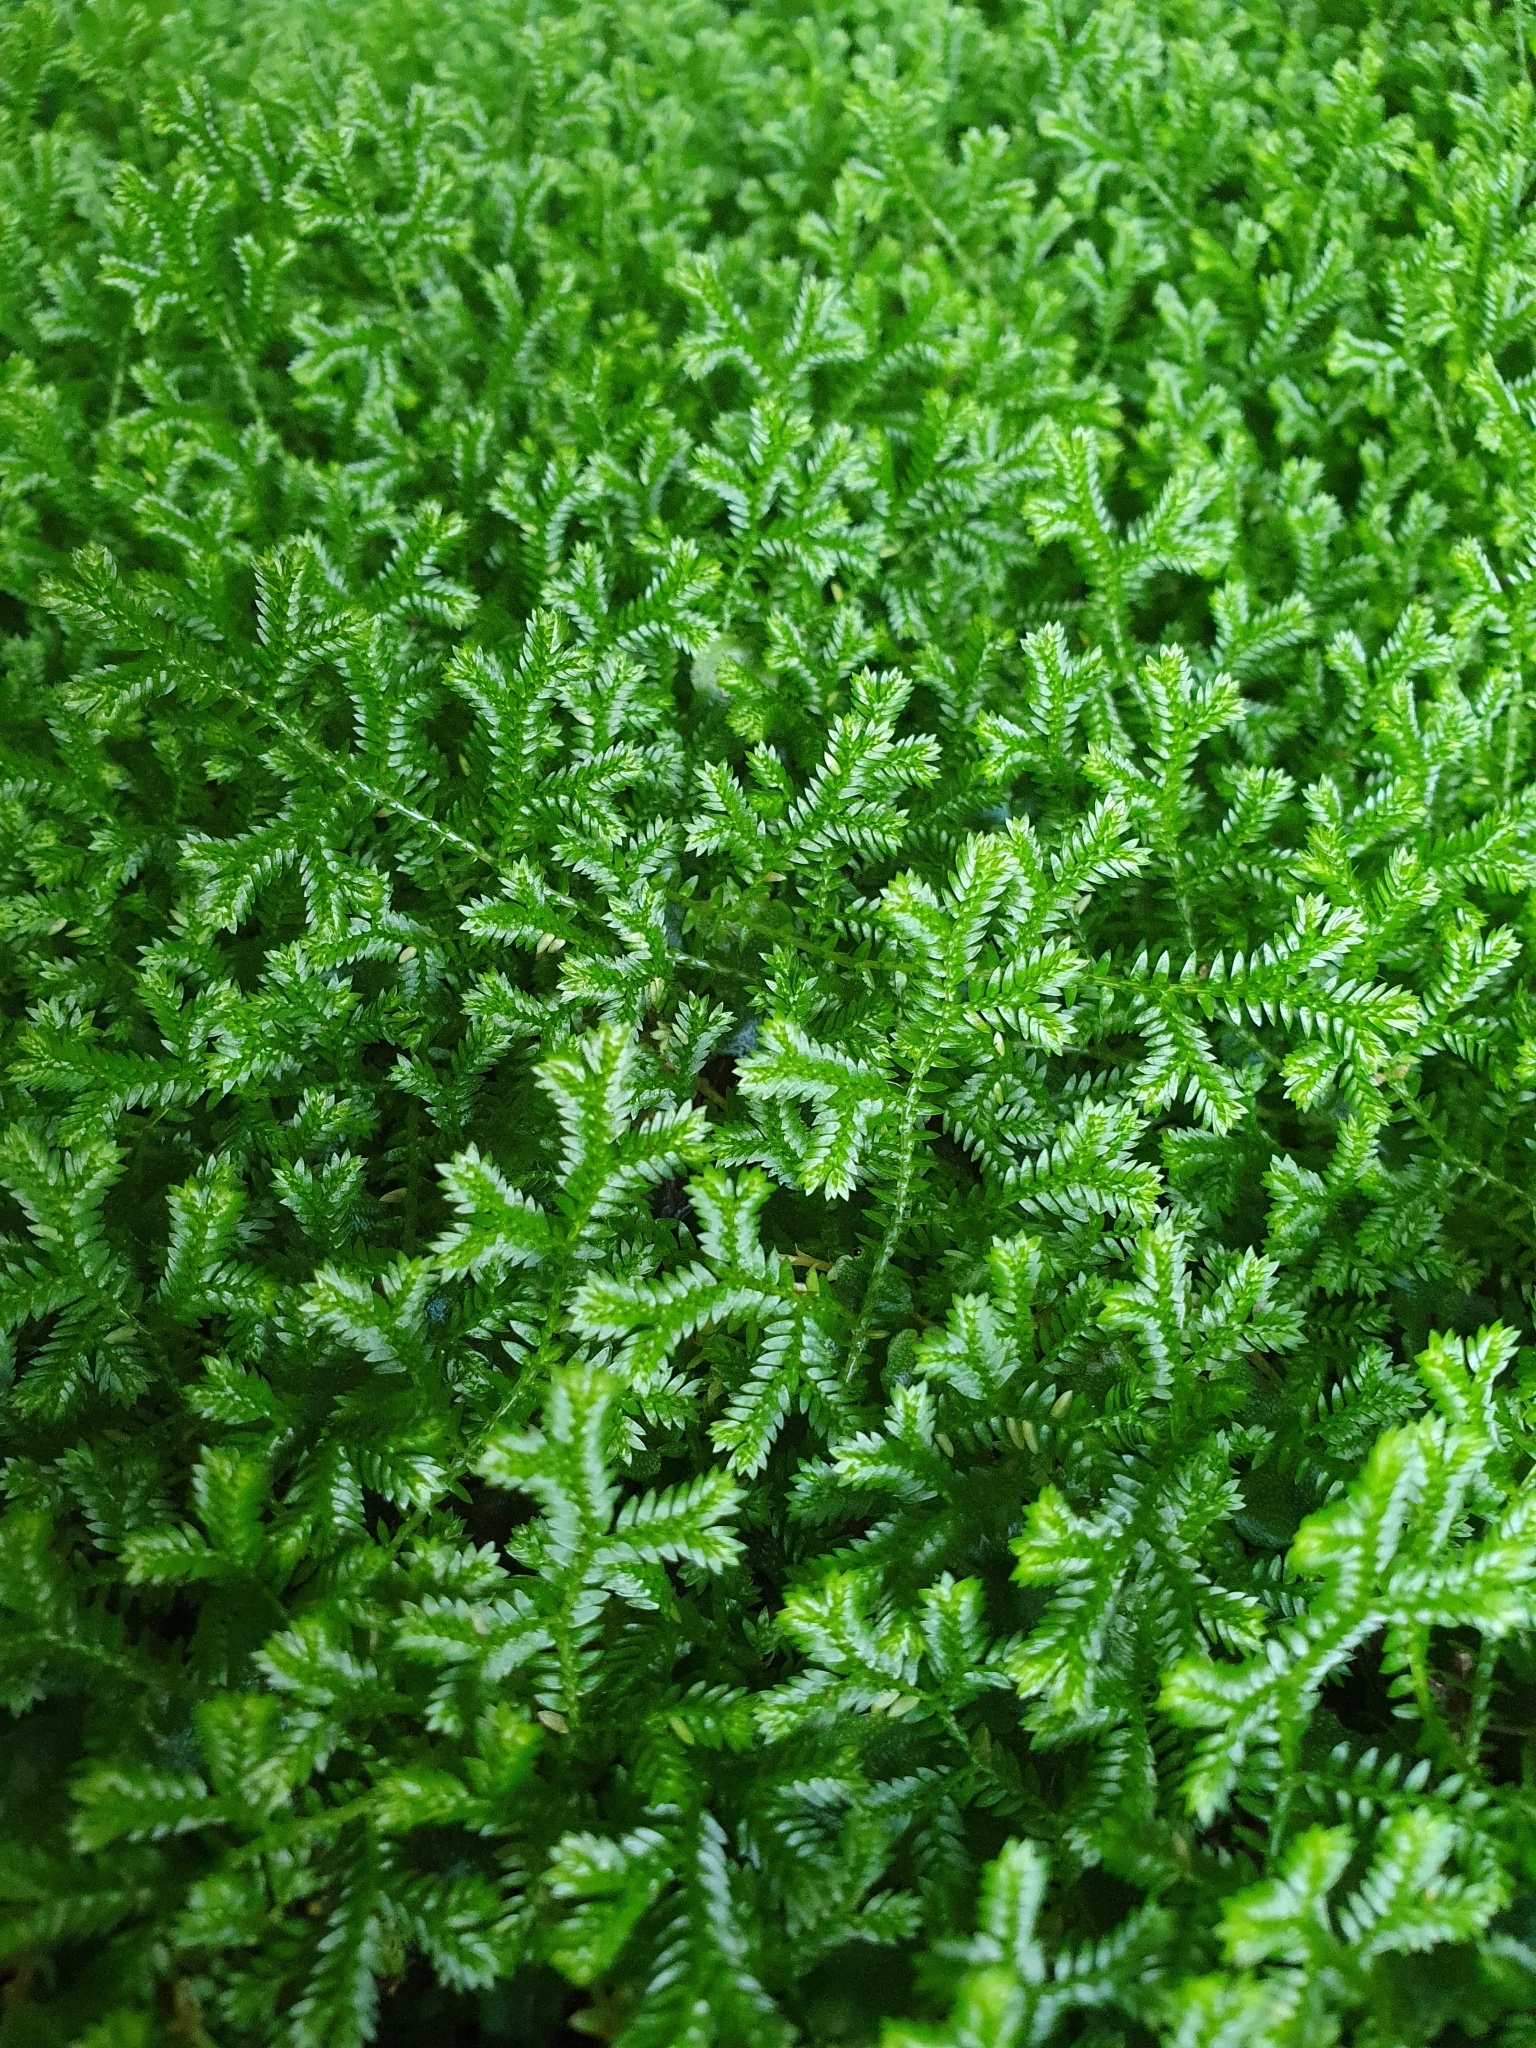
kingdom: Plantae
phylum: Tracheophyta
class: Lycopodiopsida
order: Selaginellales
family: Selaginellaceae
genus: Selaginella
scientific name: Selaginella kraussiana
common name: Krauss' spikemoss
